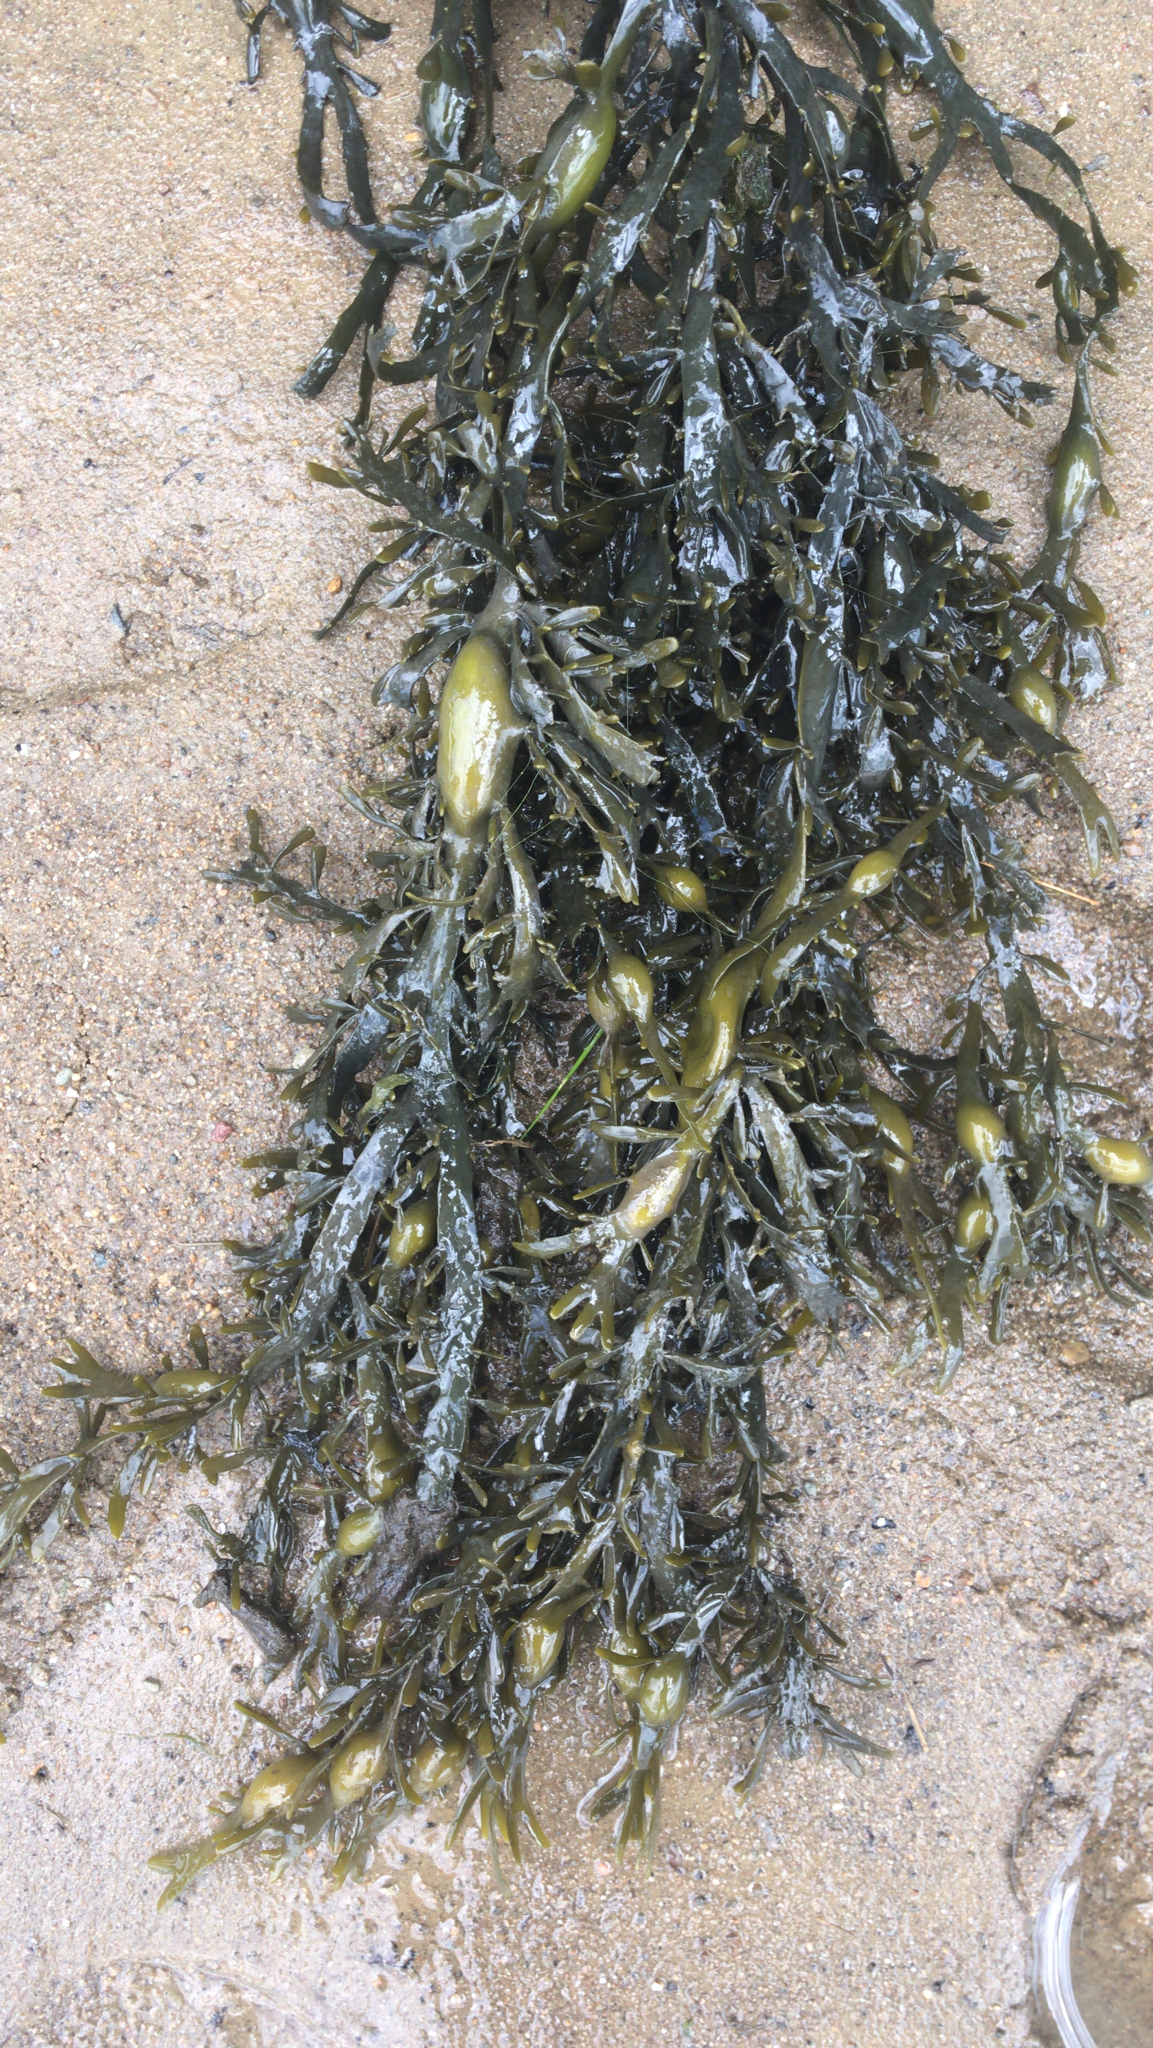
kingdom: Chromista
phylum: Ochrophyta
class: Phaeophyceae
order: Fucales
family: Fucaceae
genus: Ascophyllum
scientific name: Ascophyllum nodosum
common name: Knotted wrack
